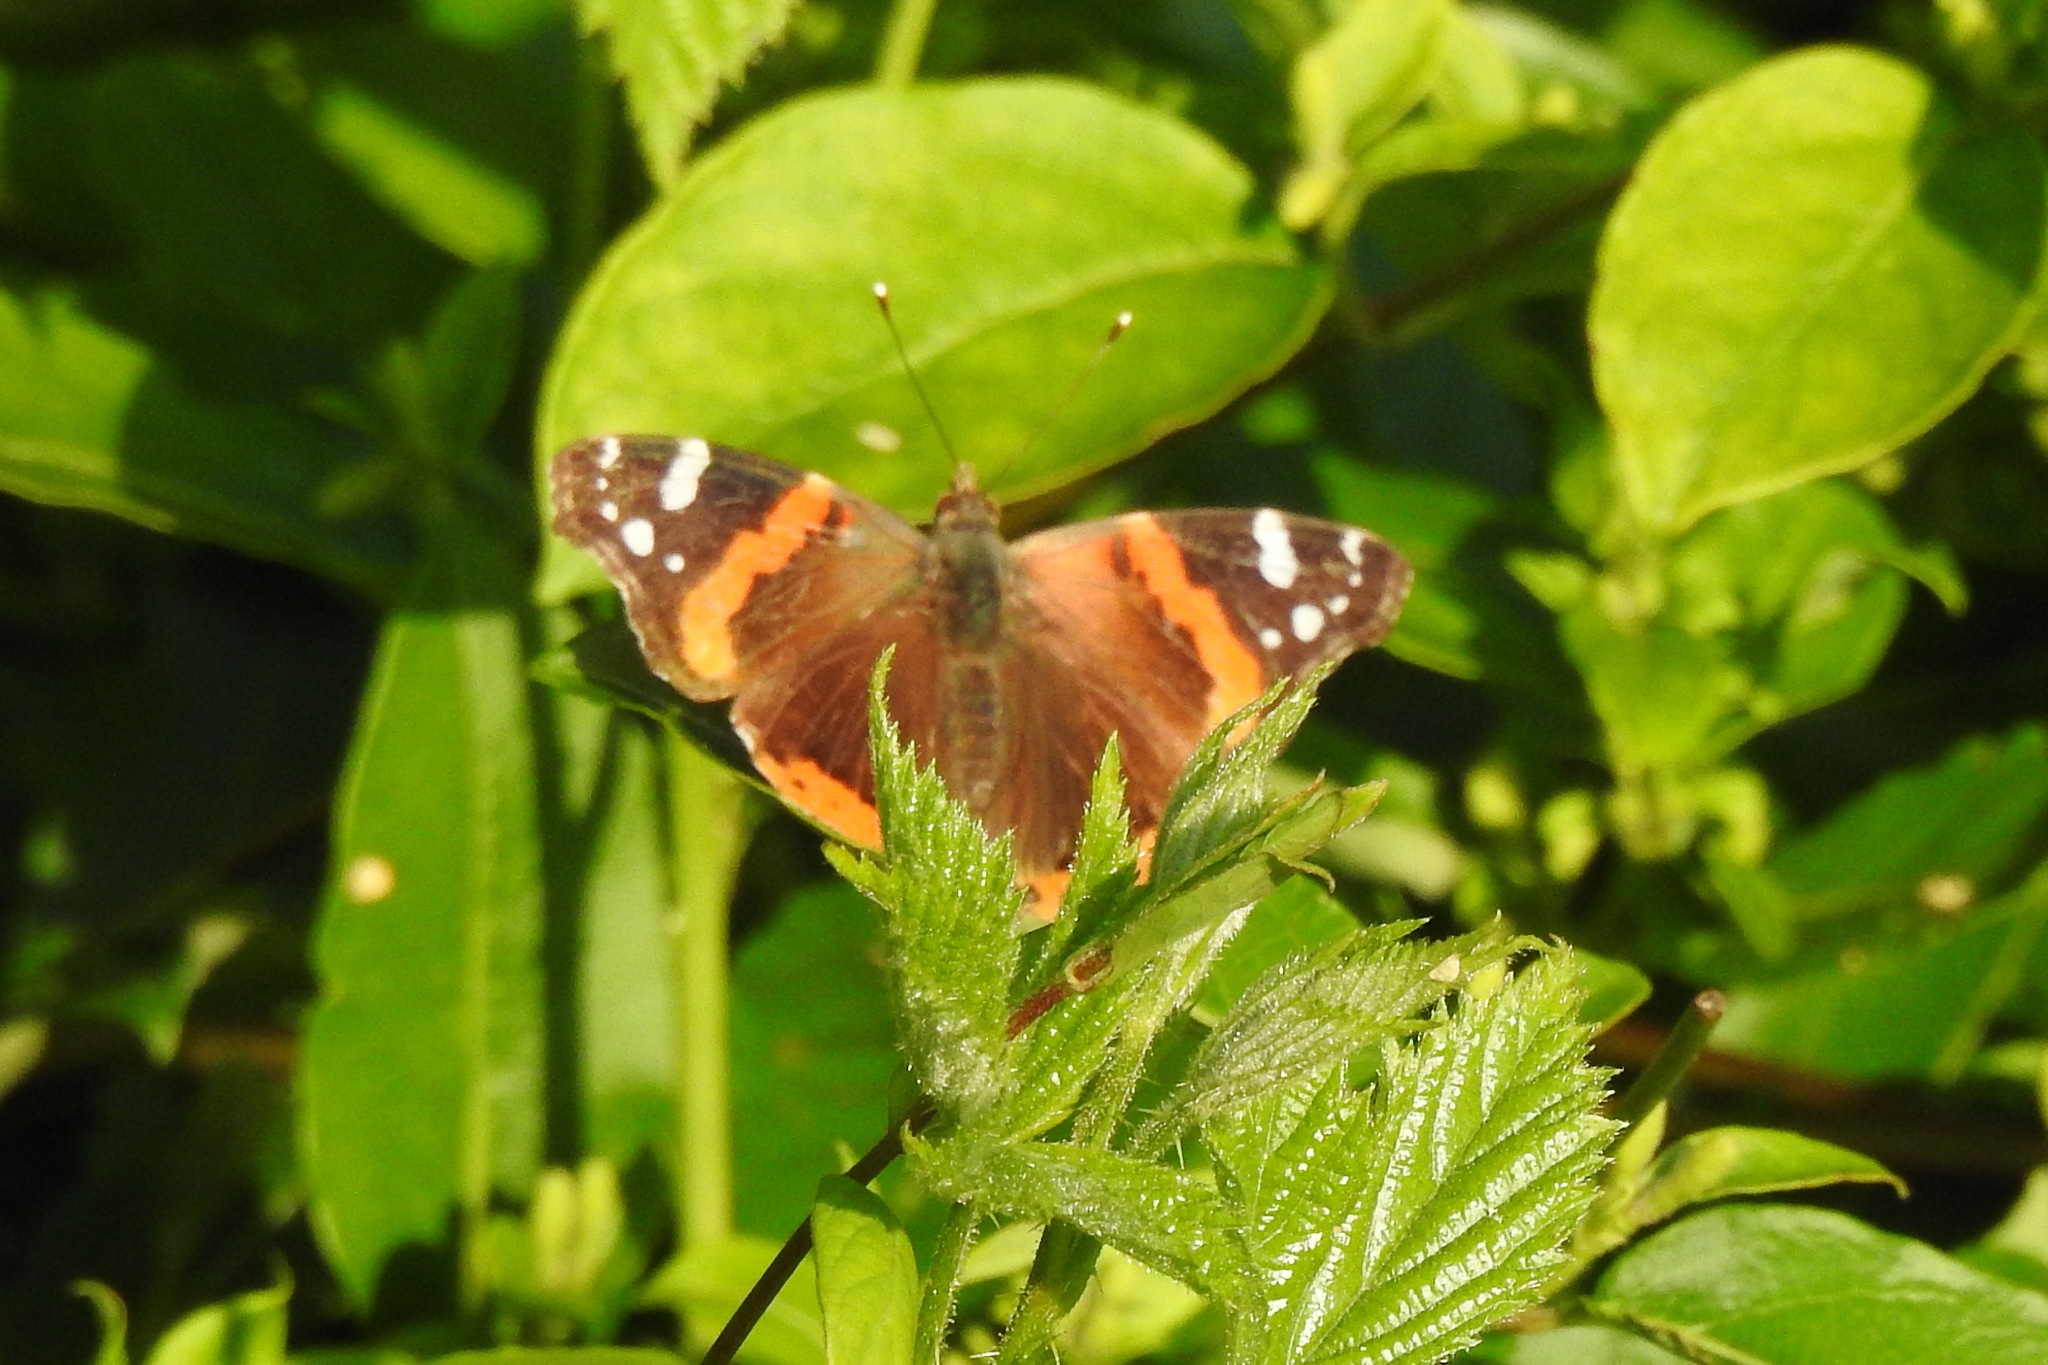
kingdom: Animalia
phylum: Arthropoda
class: Insecta
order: Lepidoptera
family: Nymphalidae
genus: Vanessa
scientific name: Vanessa atalanta
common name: Red admiral
